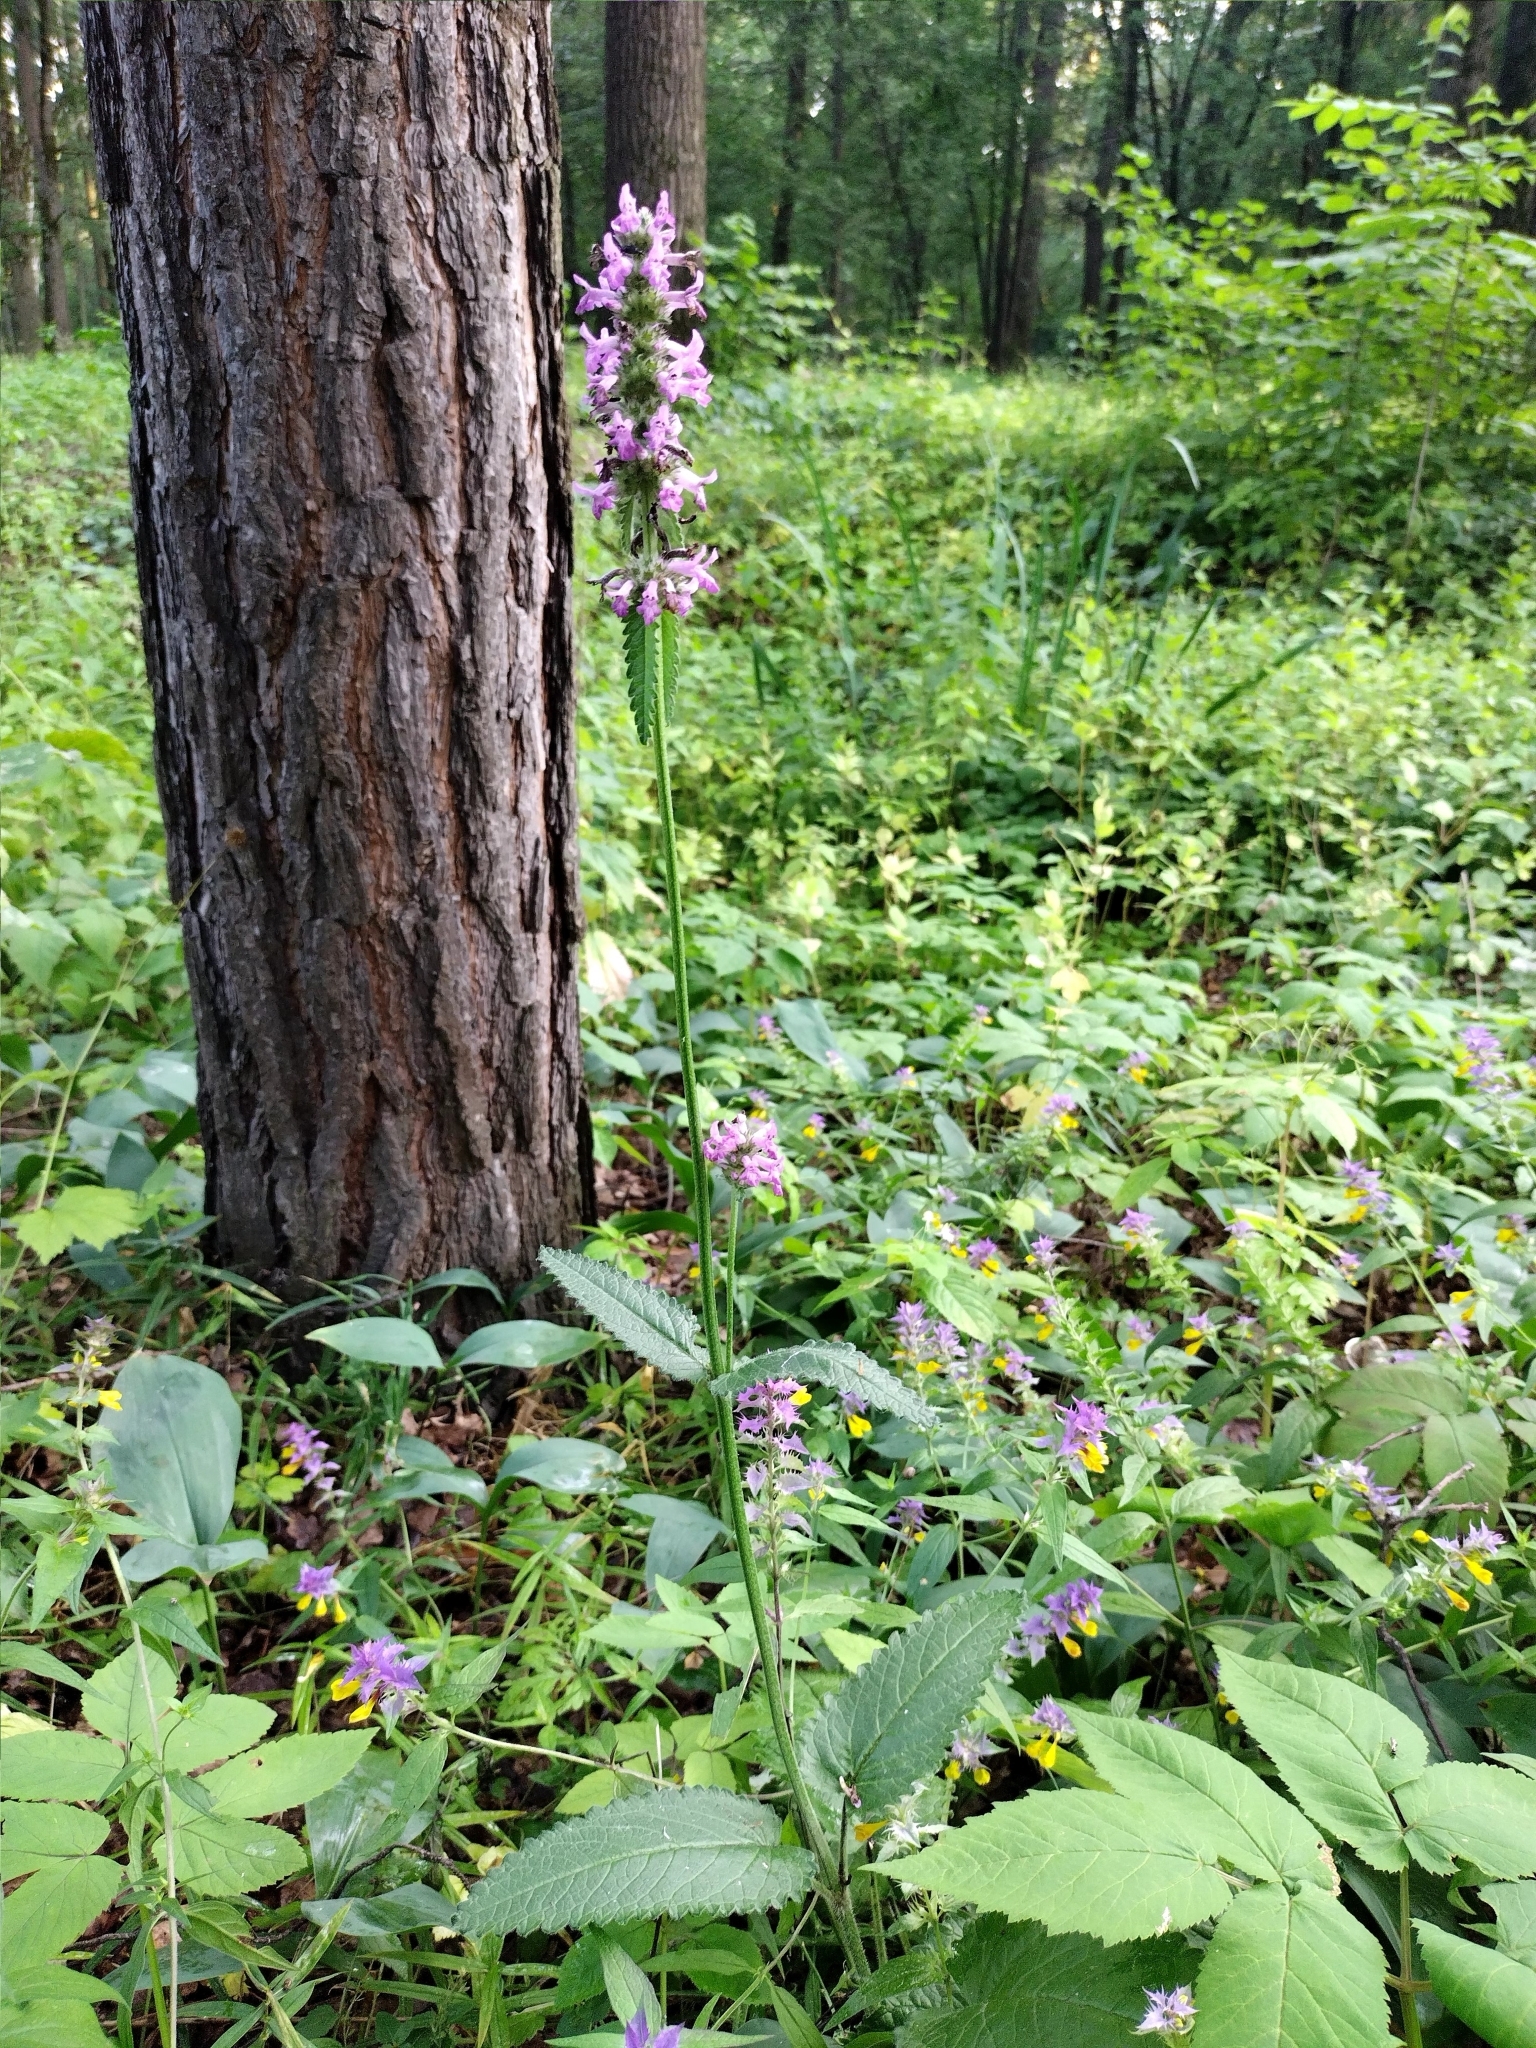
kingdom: Plantae
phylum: Tracheophyta
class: Magnoliopsida
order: Lamiales
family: Lamiaceae
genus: Betonica
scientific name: Betonica officinalis
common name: Bishop's-wort
